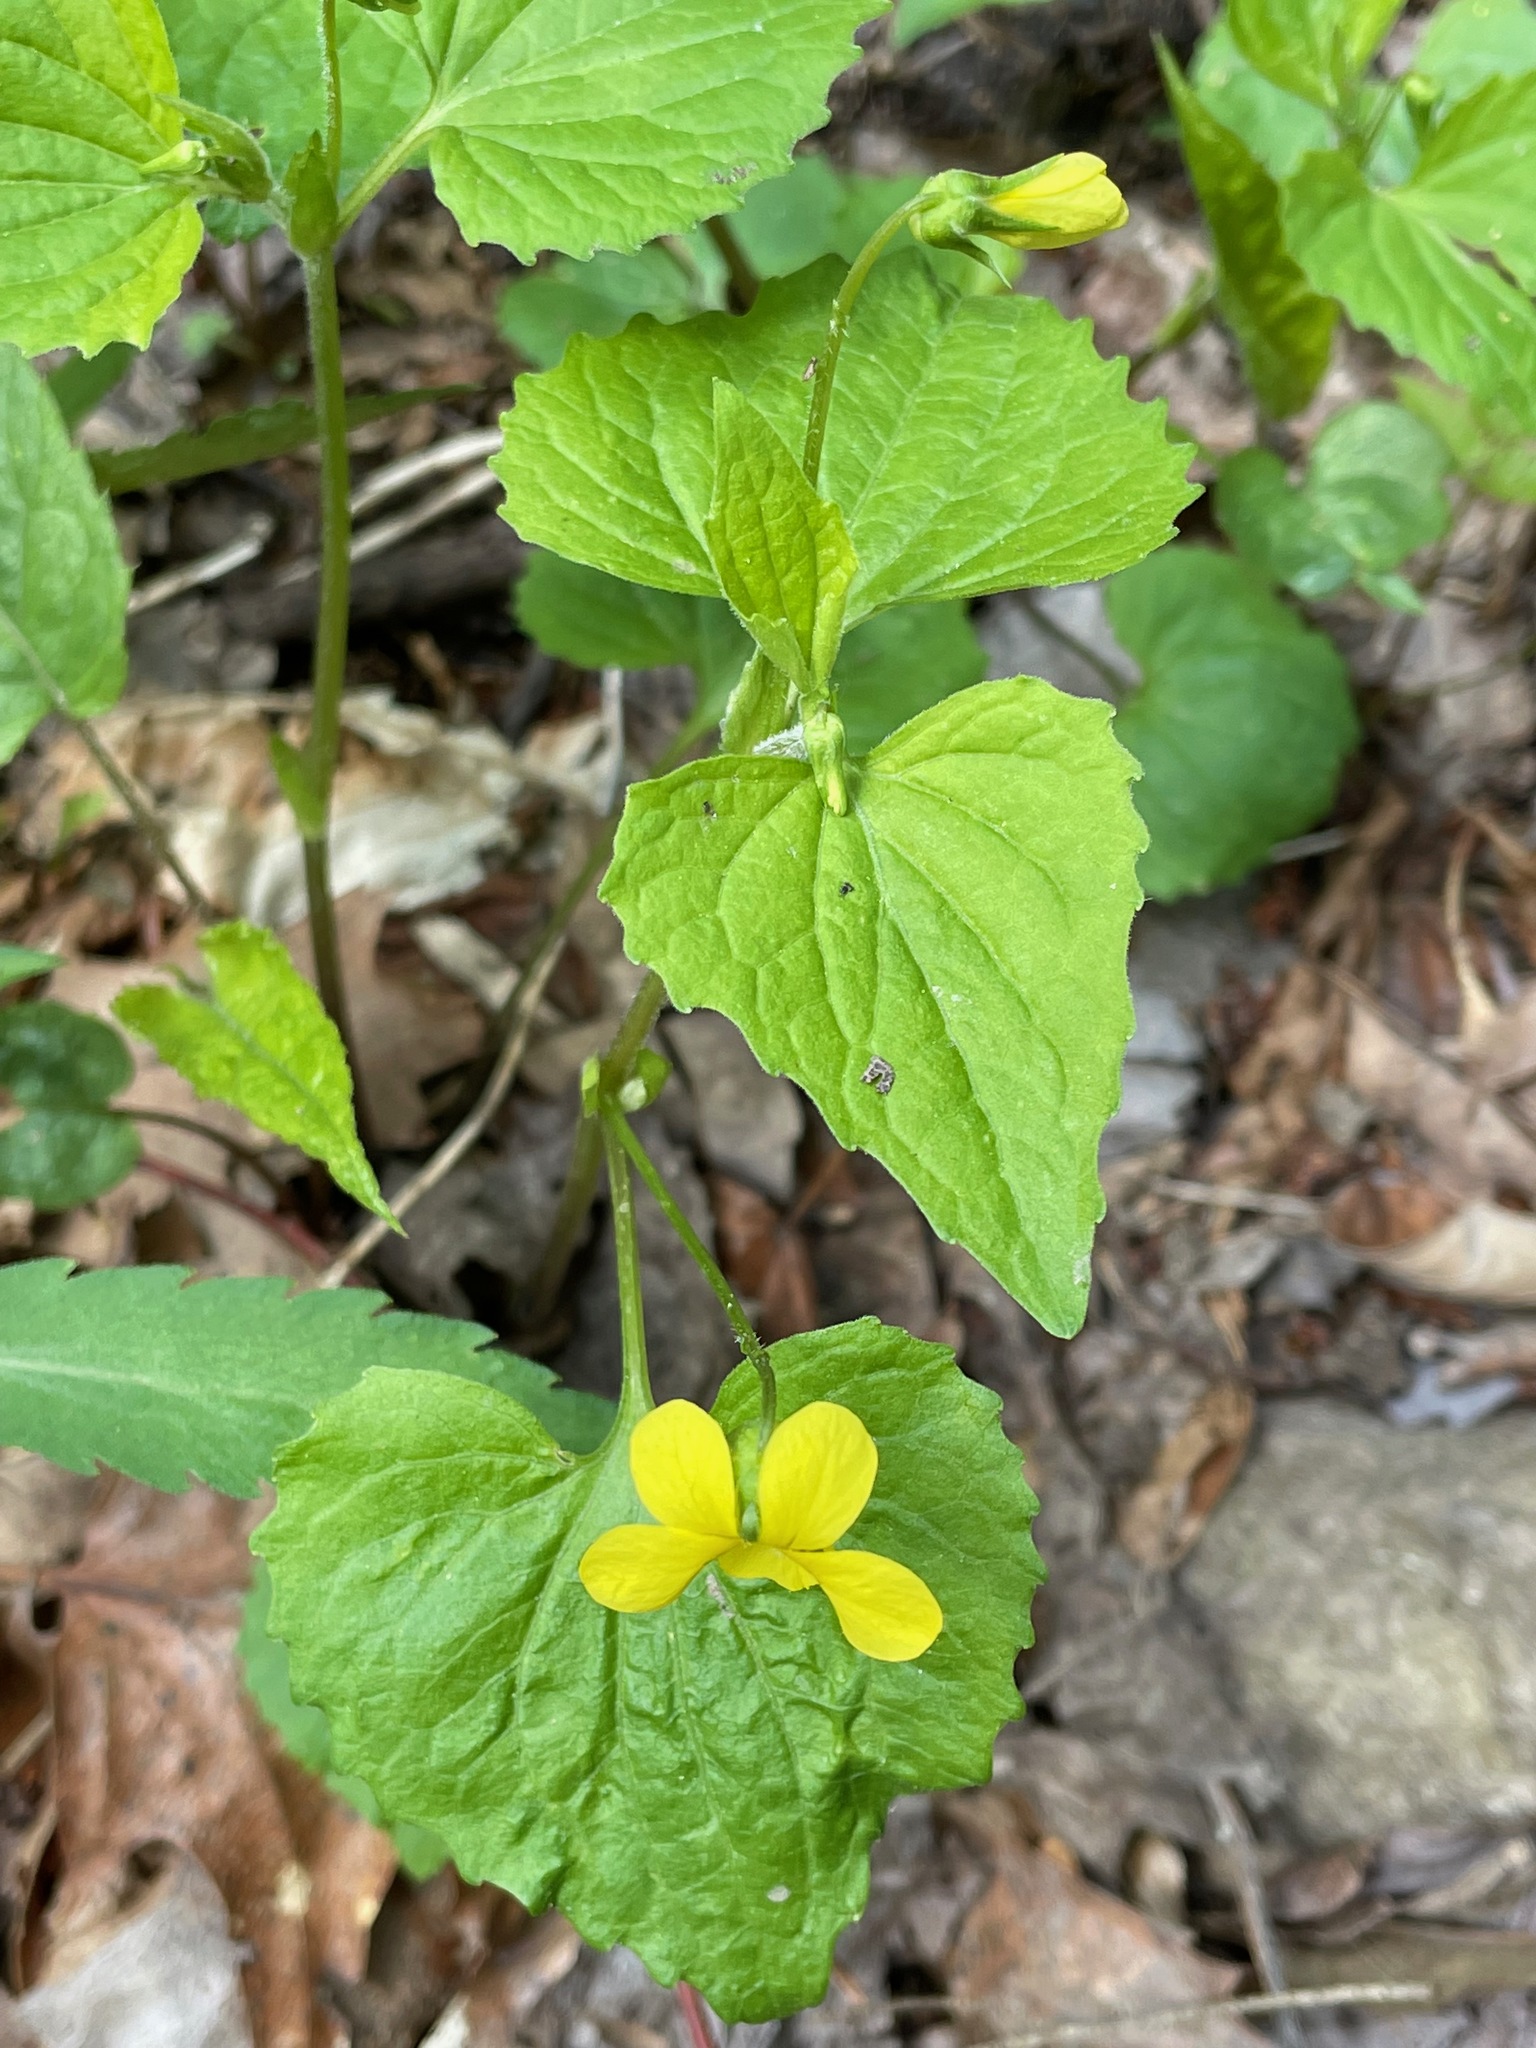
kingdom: Plantae
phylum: Tracheophyta
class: Magnoliopsida
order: Malpighiales
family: Violaceae
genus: Viola
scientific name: Viola eriocarpa
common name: Smooth yellow violet
